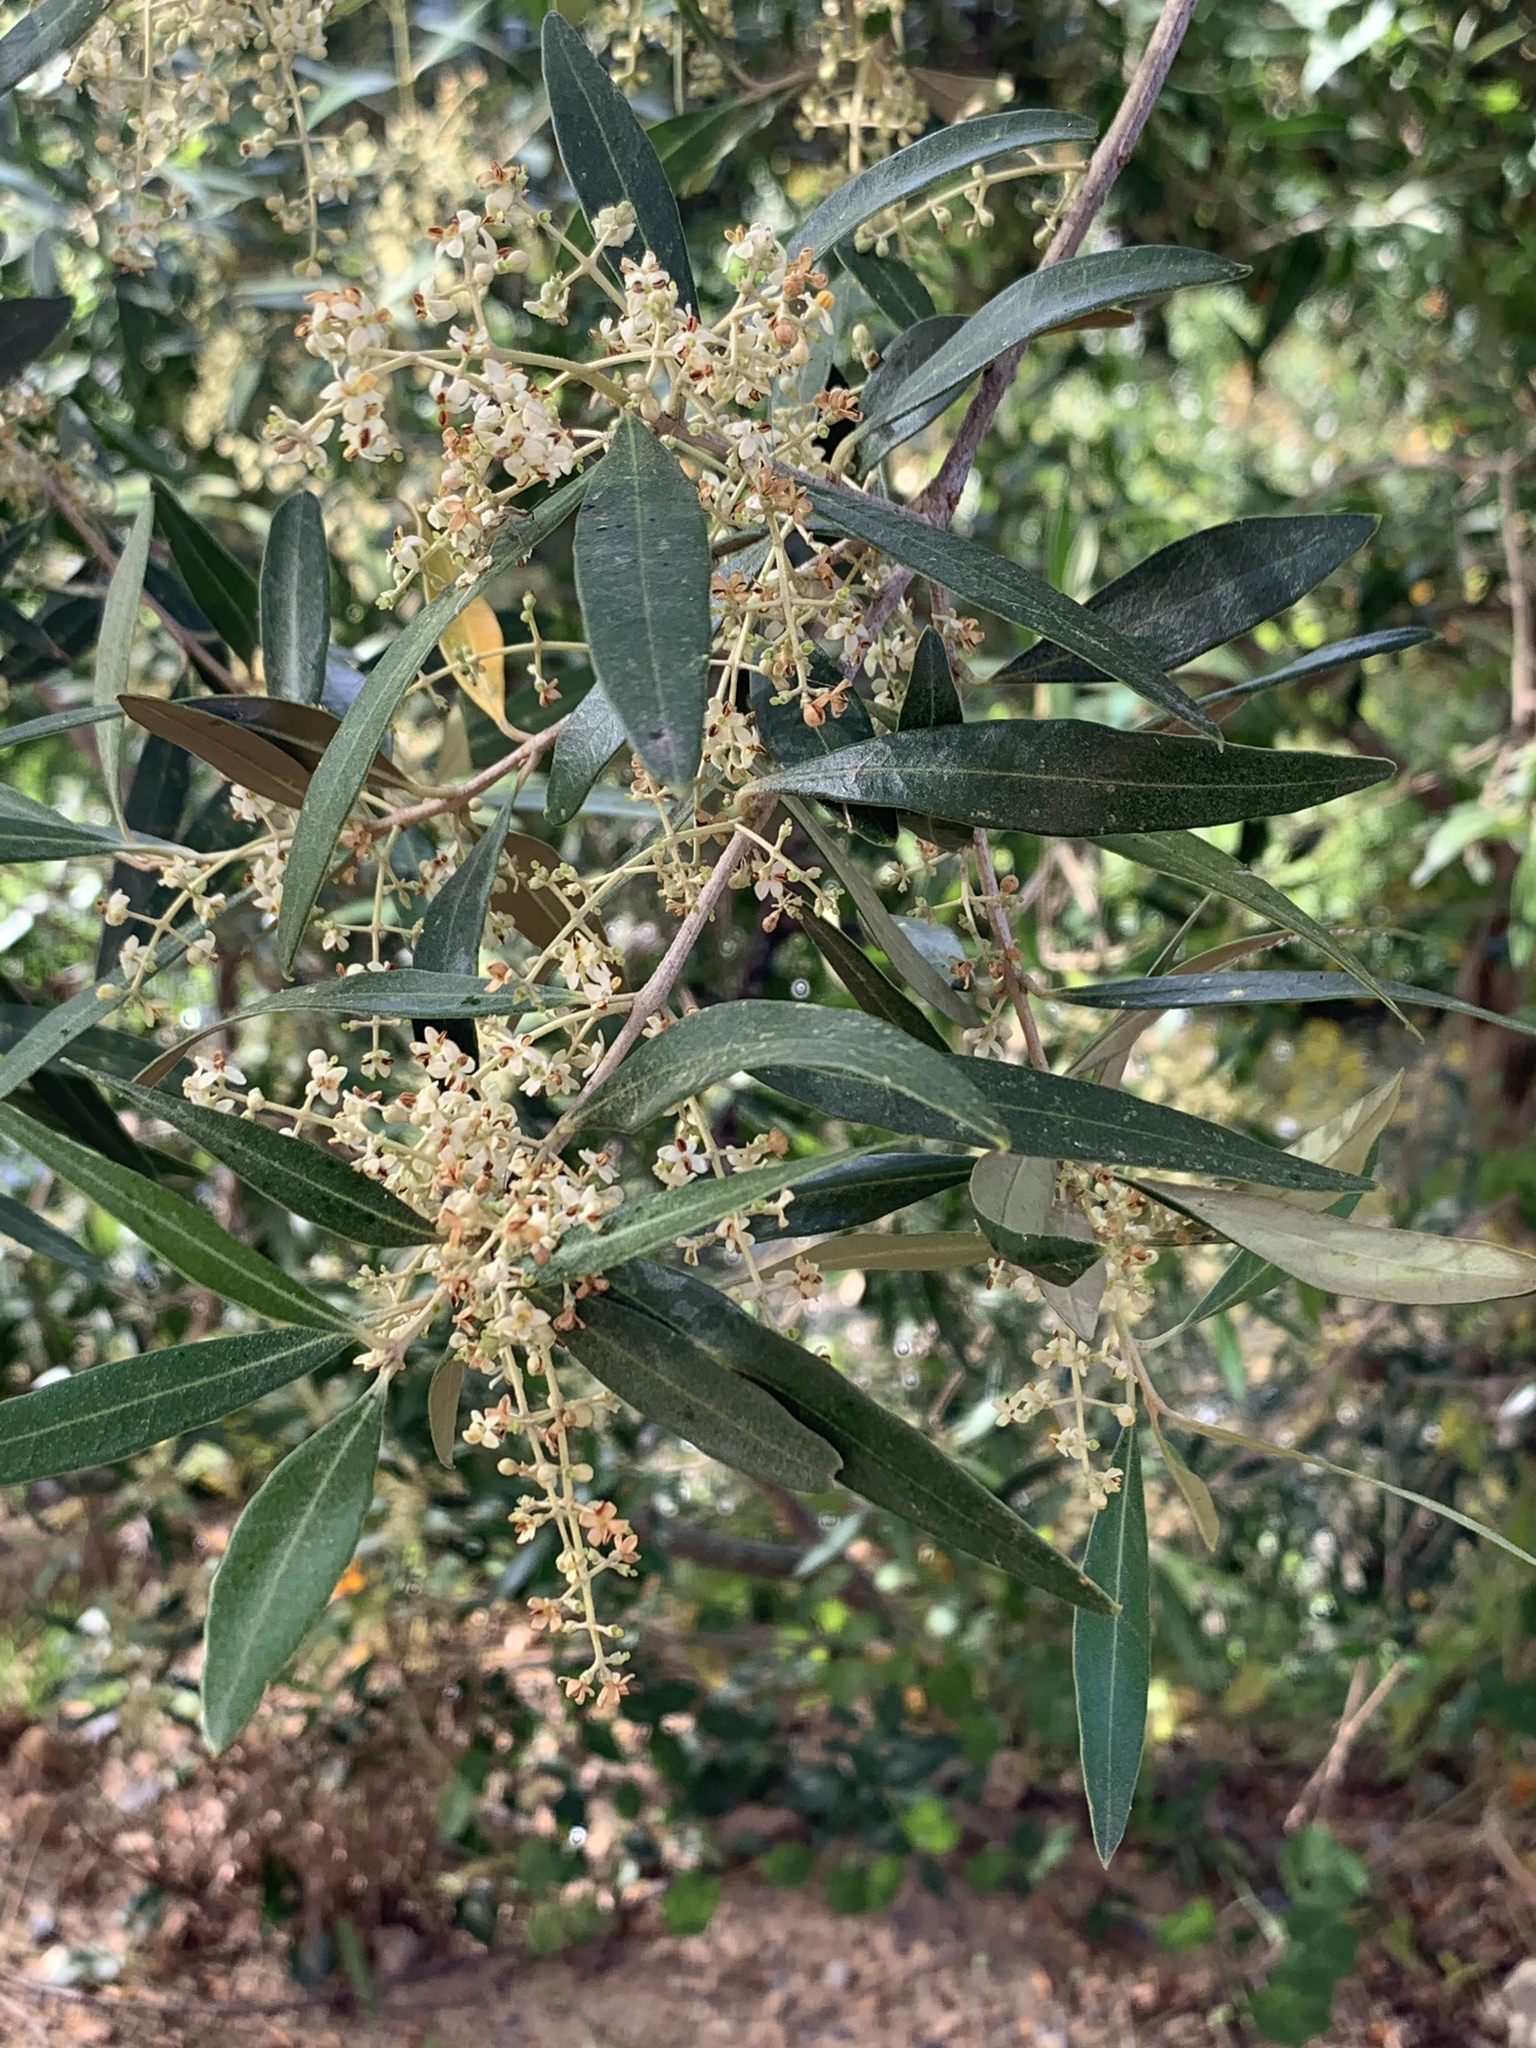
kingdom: Plantae
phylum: Tracheophyta
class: Magnoliopsida
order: Lamiales
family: Oleaceae
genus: Olea
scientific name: Olea europaea
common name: Olive
